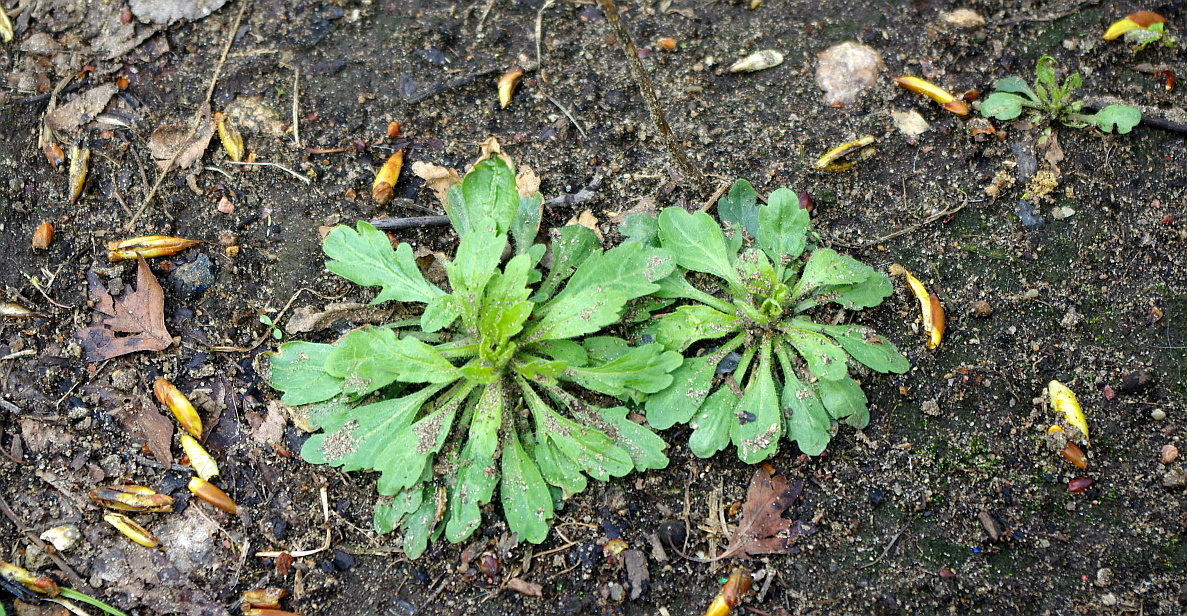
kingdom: Plantae
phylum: Tracheophyta
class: Magnoliopsida
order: Asterales
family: Asteraceae
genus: Erigeron
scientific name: Erigeron canadensis
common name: Canadian fleabane
